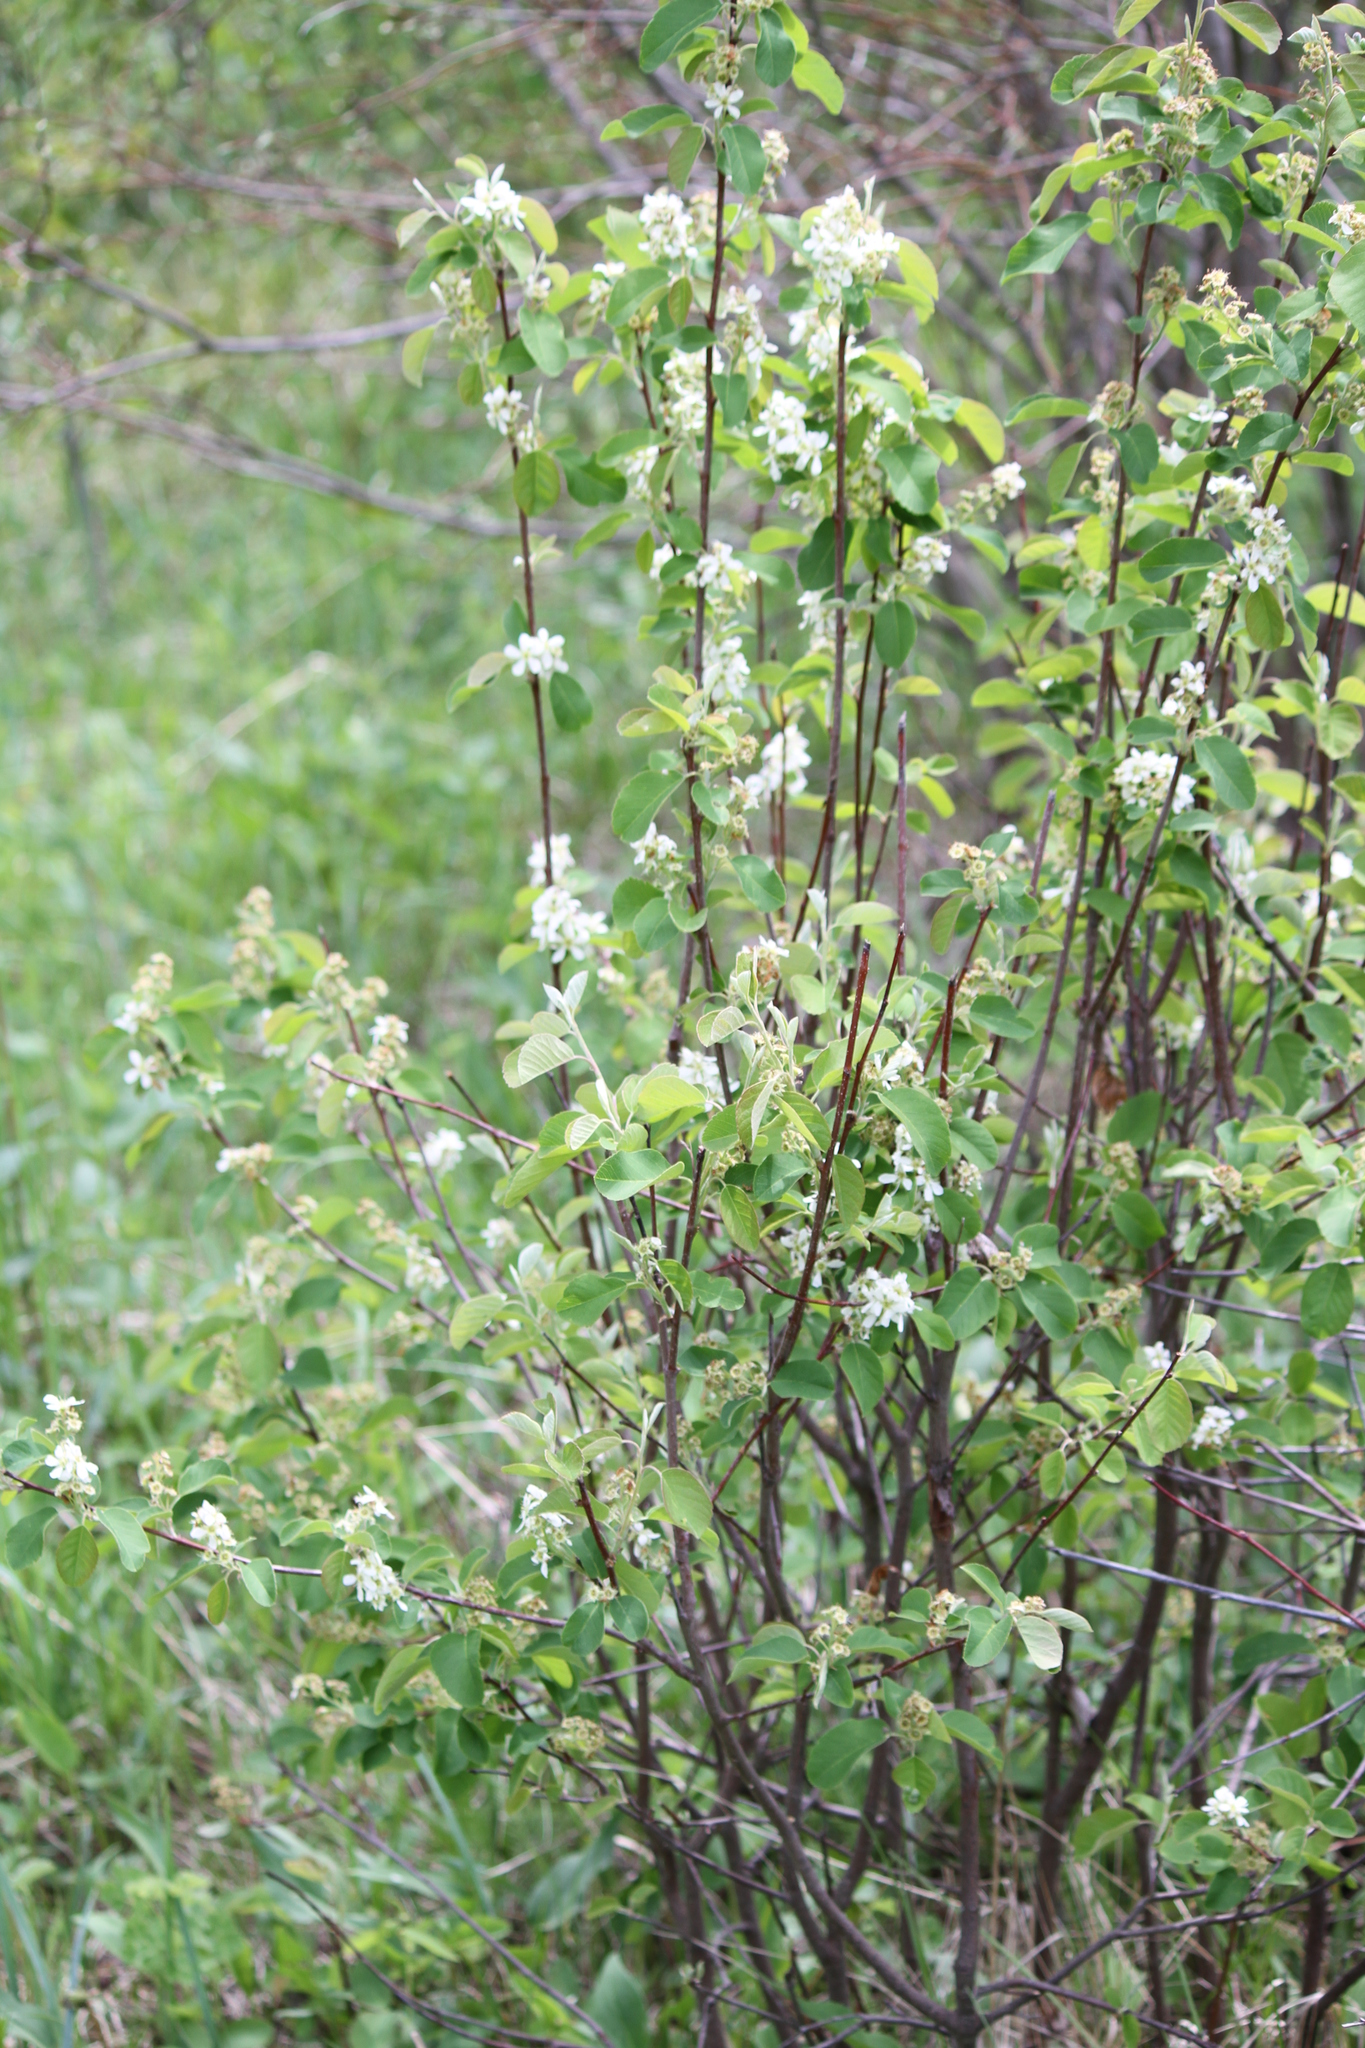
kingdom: Plantae
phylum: Tracheophyta
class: Magnoliopsida
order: Rosales
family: Rosaceae
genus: Amelanchier
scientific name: Amelanchier alnifolia
